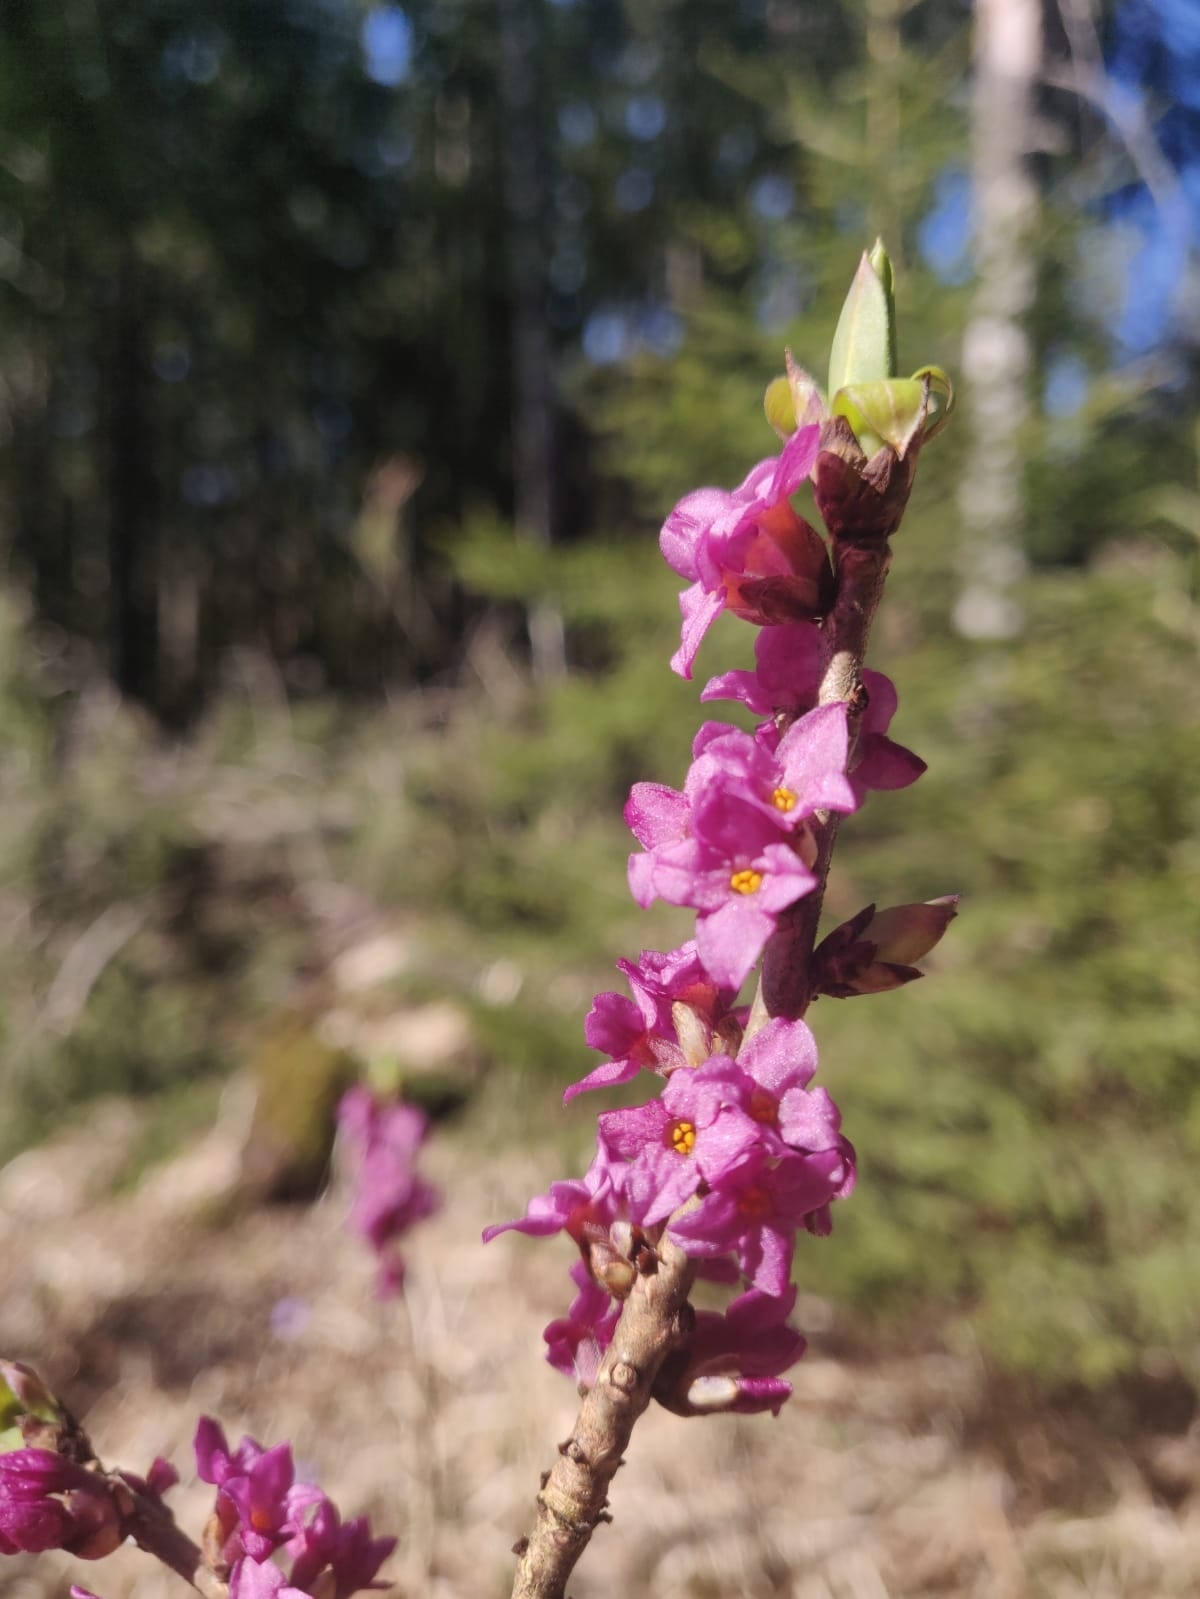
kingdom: Plantae
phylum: Tracheophyta
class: Magnoliopsida
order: Malvales
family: Thymelaeaceae
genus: Daphne
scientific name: Daphne mezereum
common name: Mezereon
